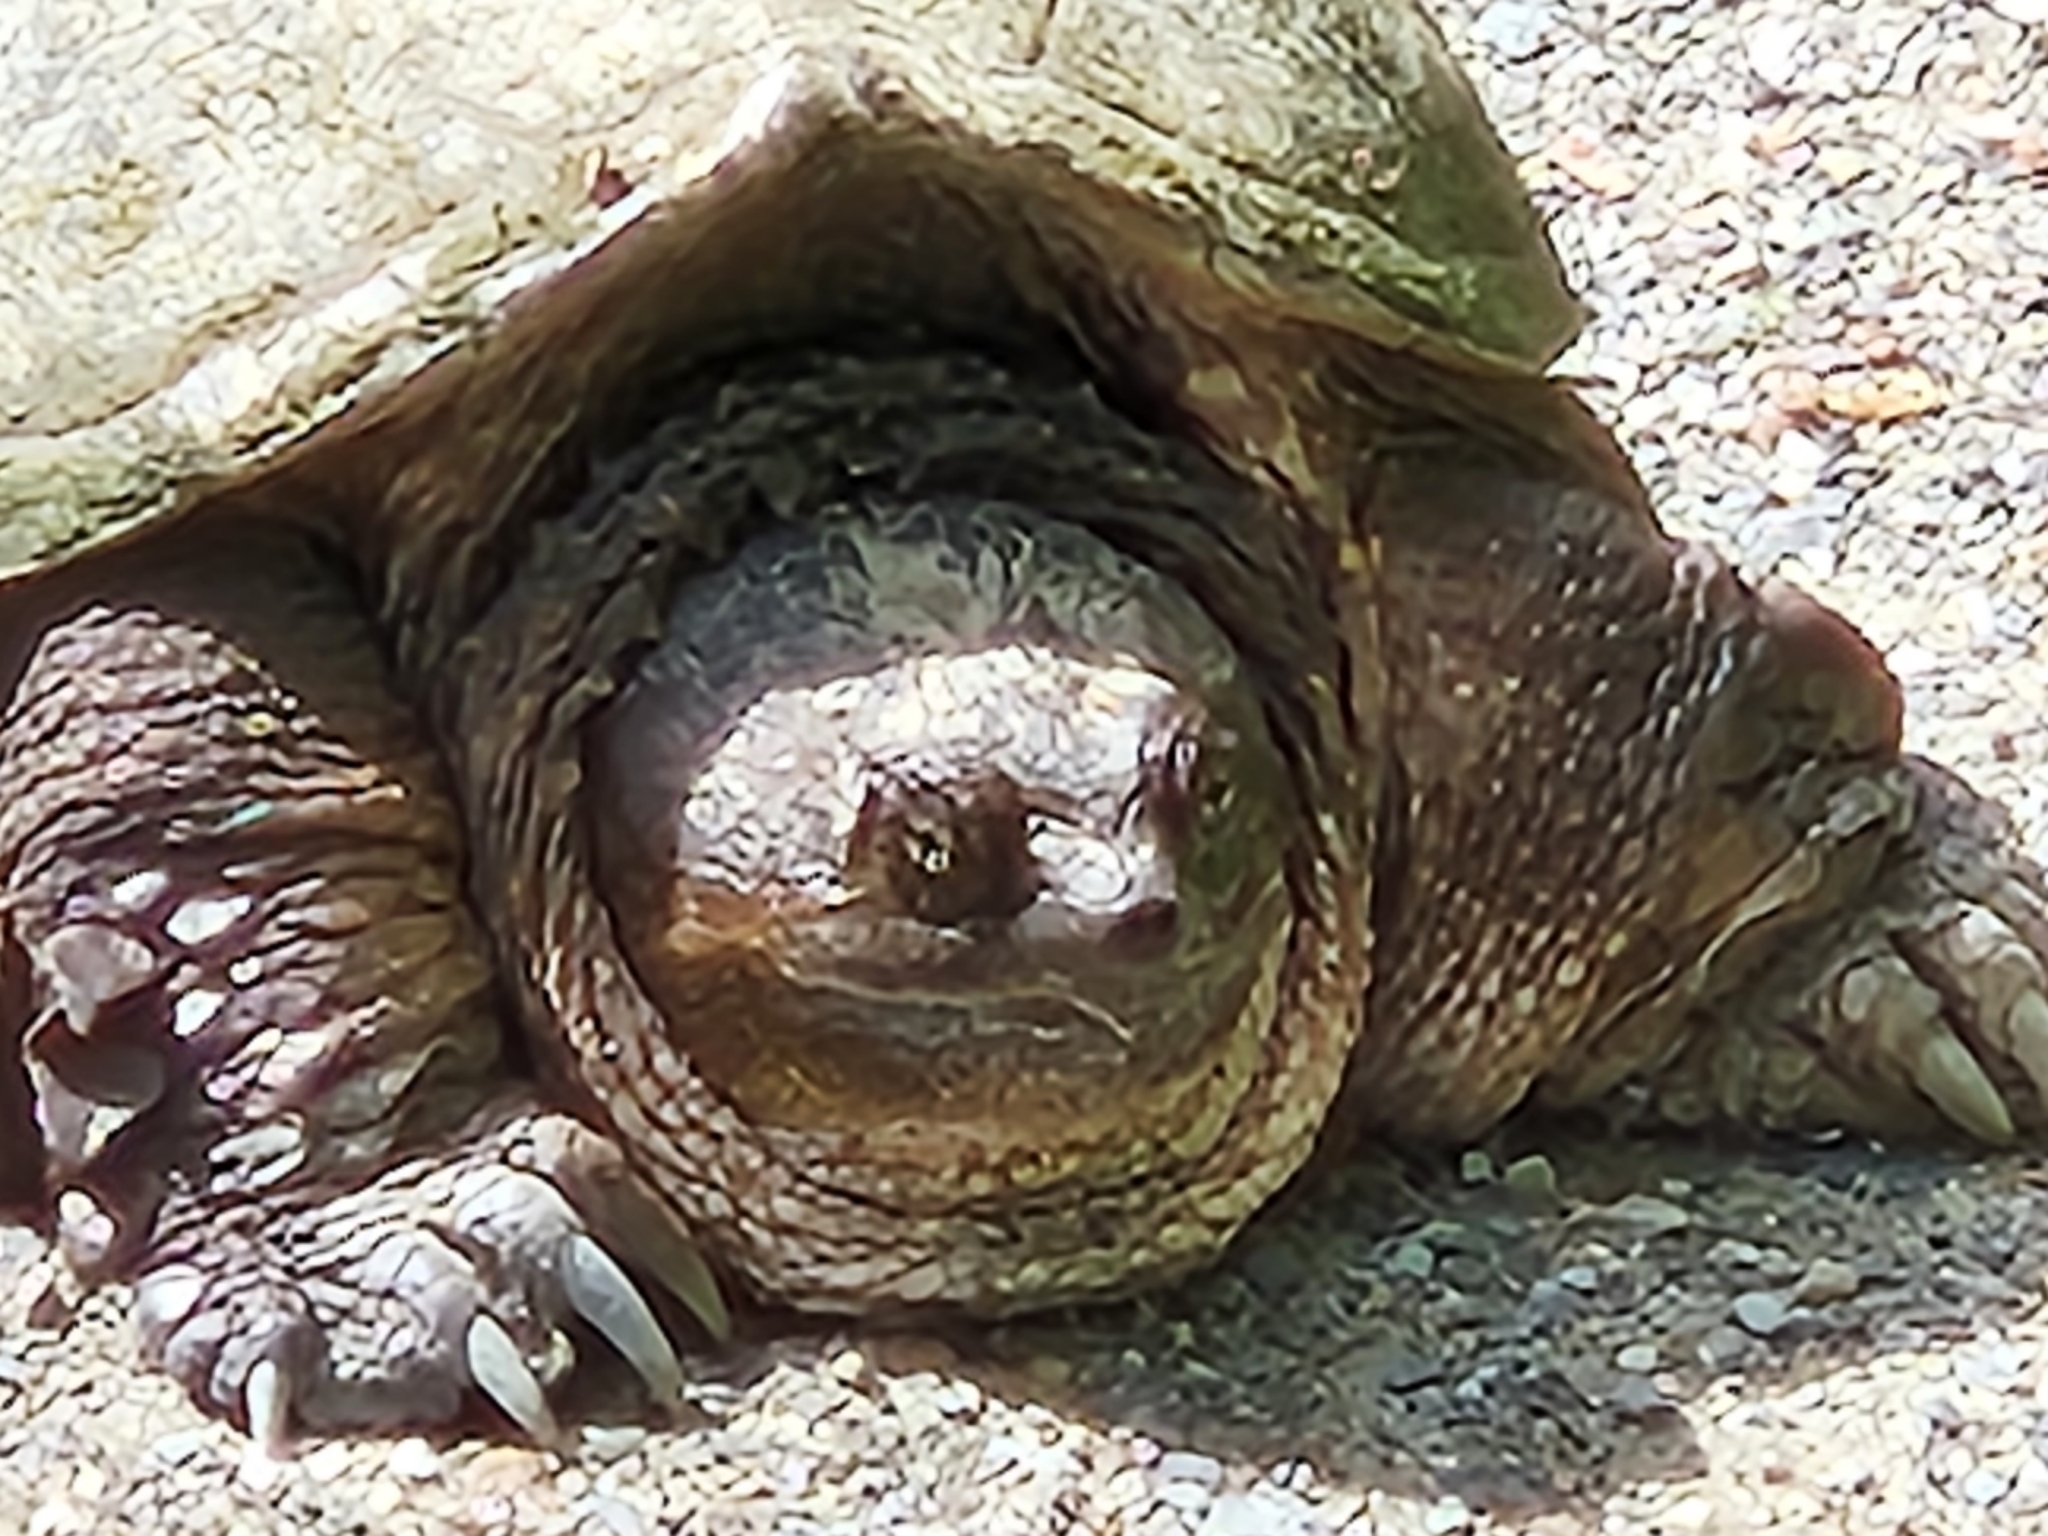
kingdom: Animalia
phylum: Chordata
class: Testudines
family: Chelydridae
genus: Chelydra
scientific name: Chelydra serpentina
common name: Common snapping turtle
